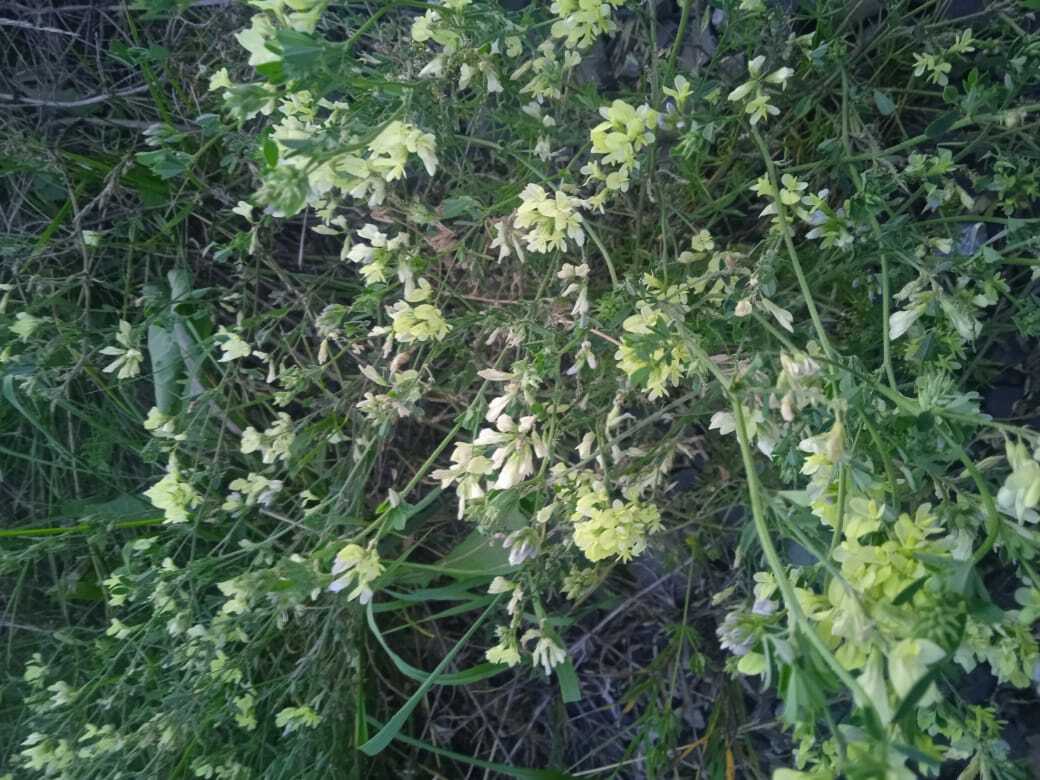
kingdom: Plantae
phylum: Tracheophyta
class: Magnoliopsida
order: Fabales
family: Fabaceae
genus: Medicago
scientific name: Medicago varia
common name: Sand lucerne
